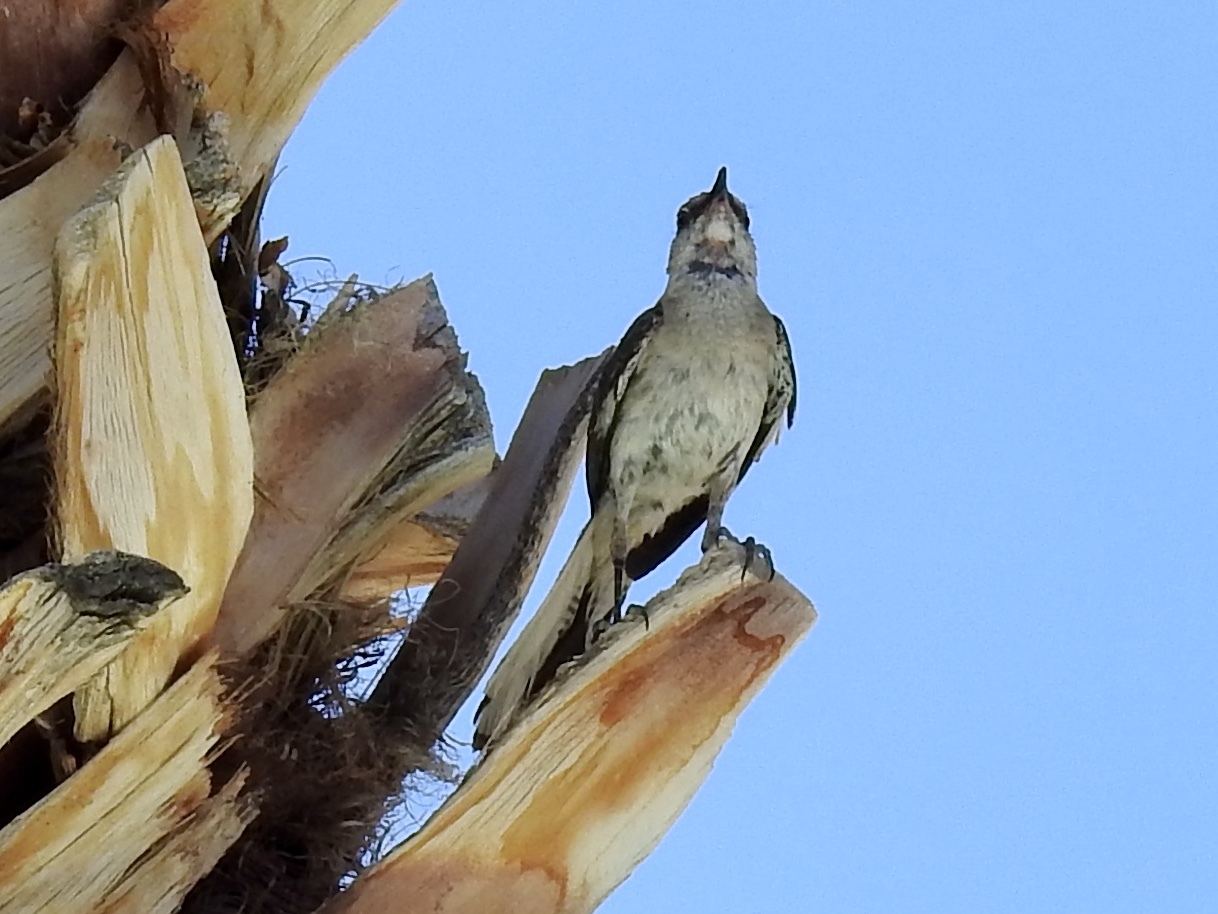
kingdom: Animalia
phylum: Chordata
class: Aves
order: Passeriformes
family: Mimidae
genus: Mimus
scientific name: Mimus polyglottos
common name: Northern mockingbird
